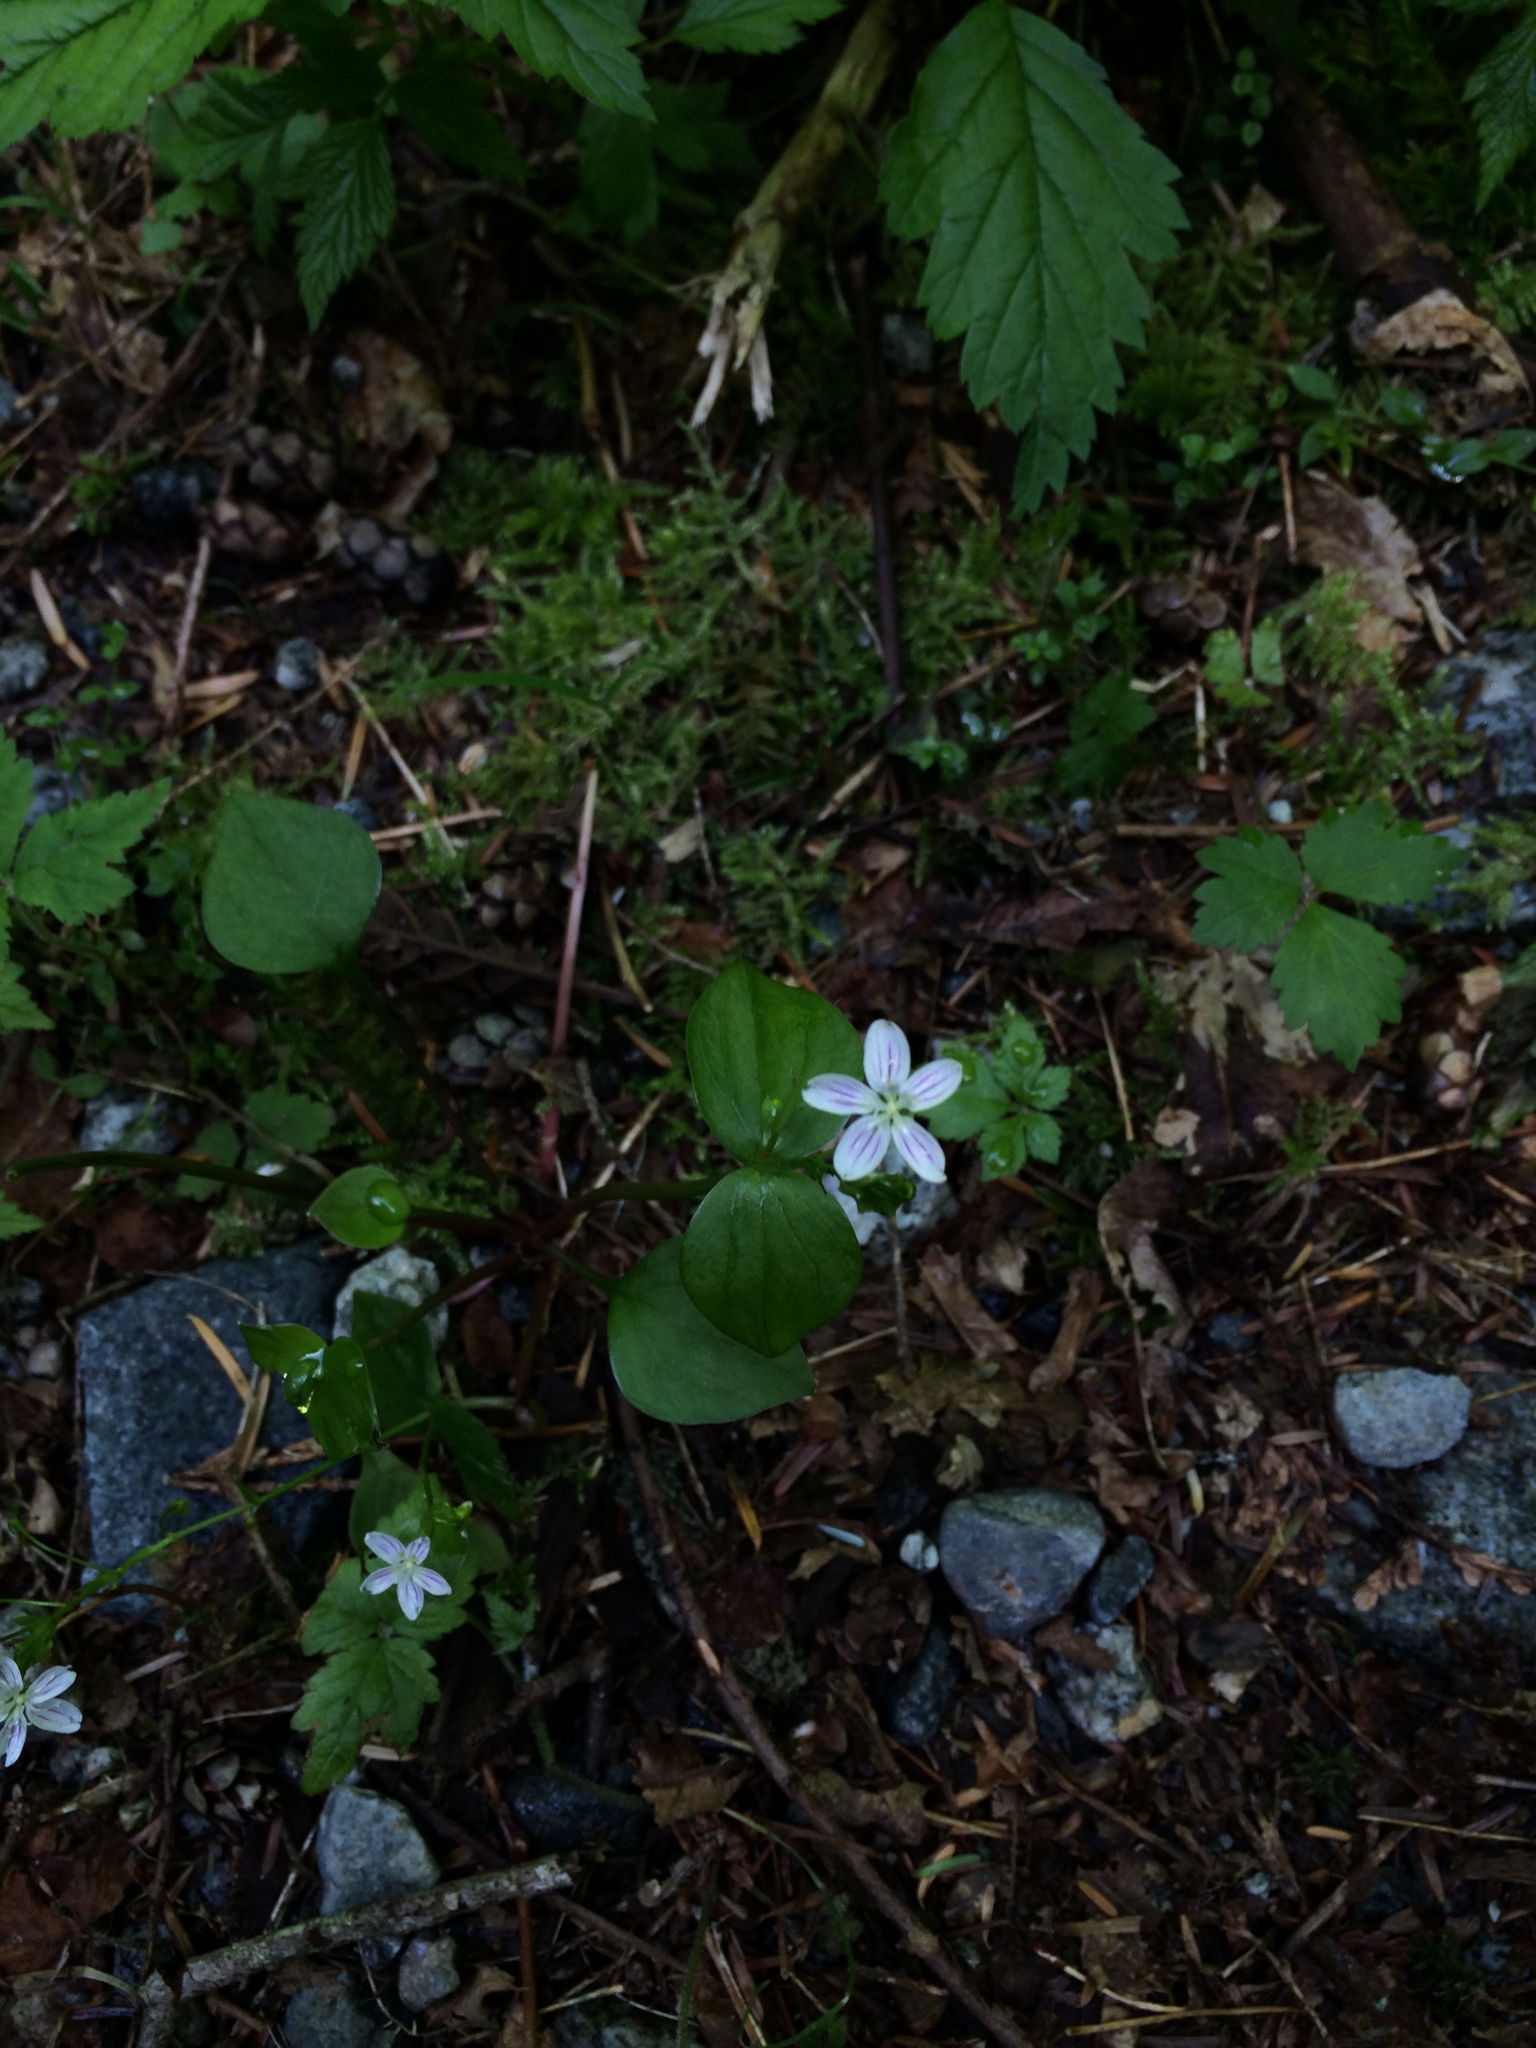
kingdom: Plantae
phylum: Tracheophyta
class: Magnoliopsida
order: Caryophyllales
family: Montiaceae
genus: Claytonia
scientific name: Claytonia sibirica
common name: Pink purslane
